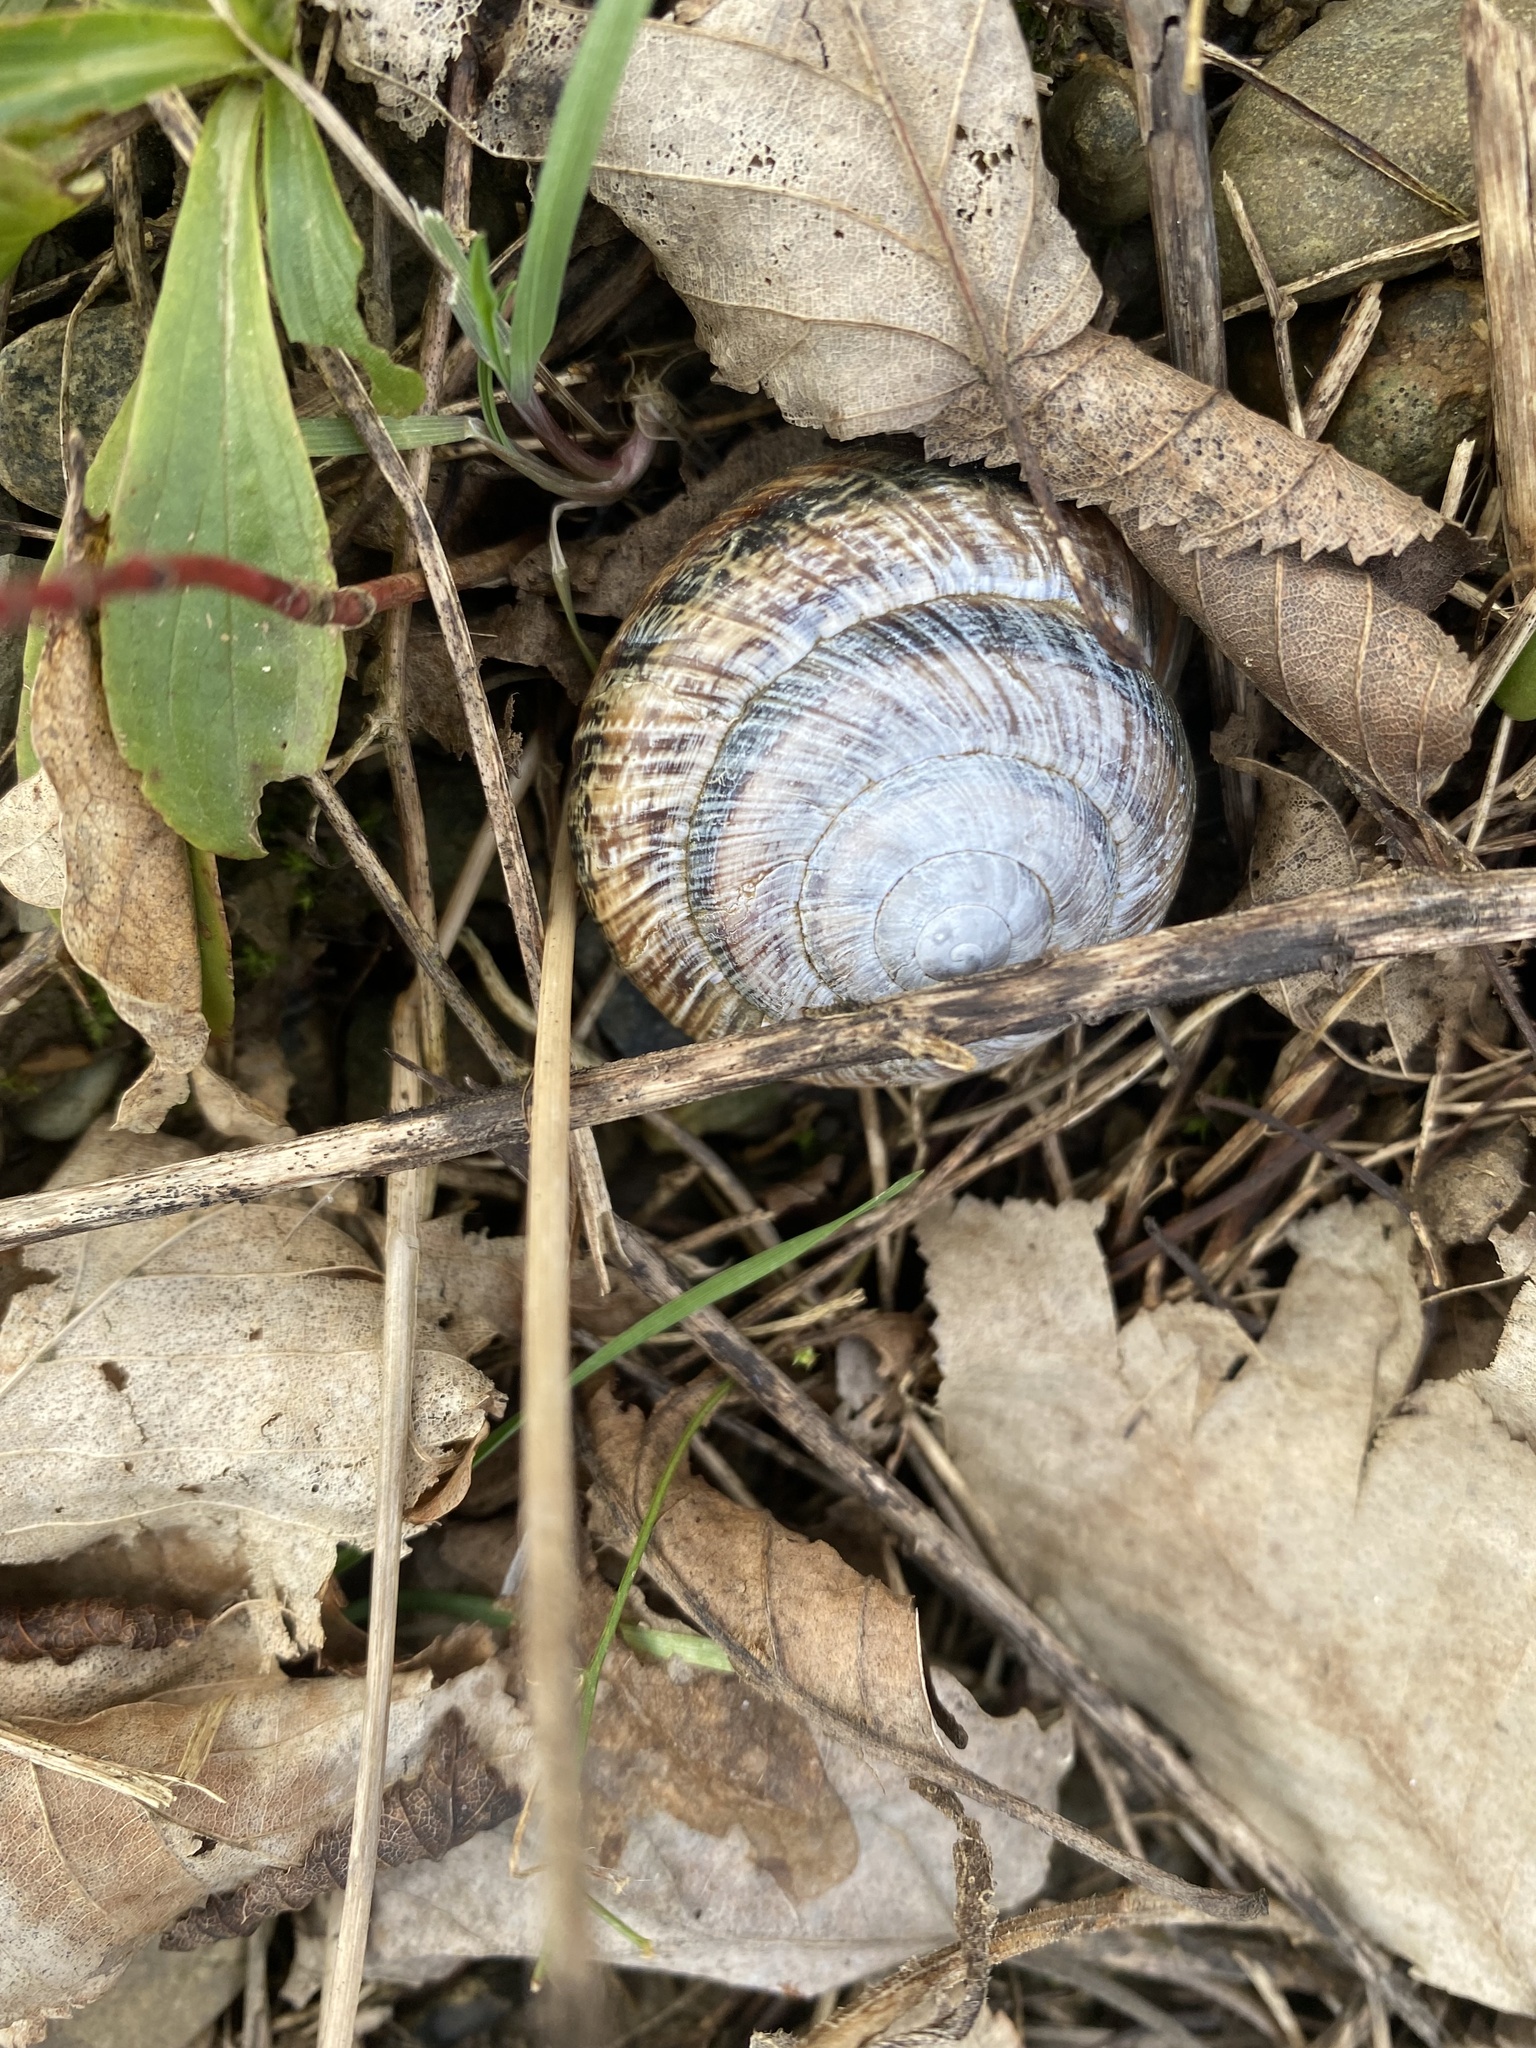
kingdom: Animalia
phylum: Mollusca
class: Gastropoda
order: Stylommatophora
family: Helicidae
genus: Caucasotachea
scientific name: Caucasotachea atrolabiata
